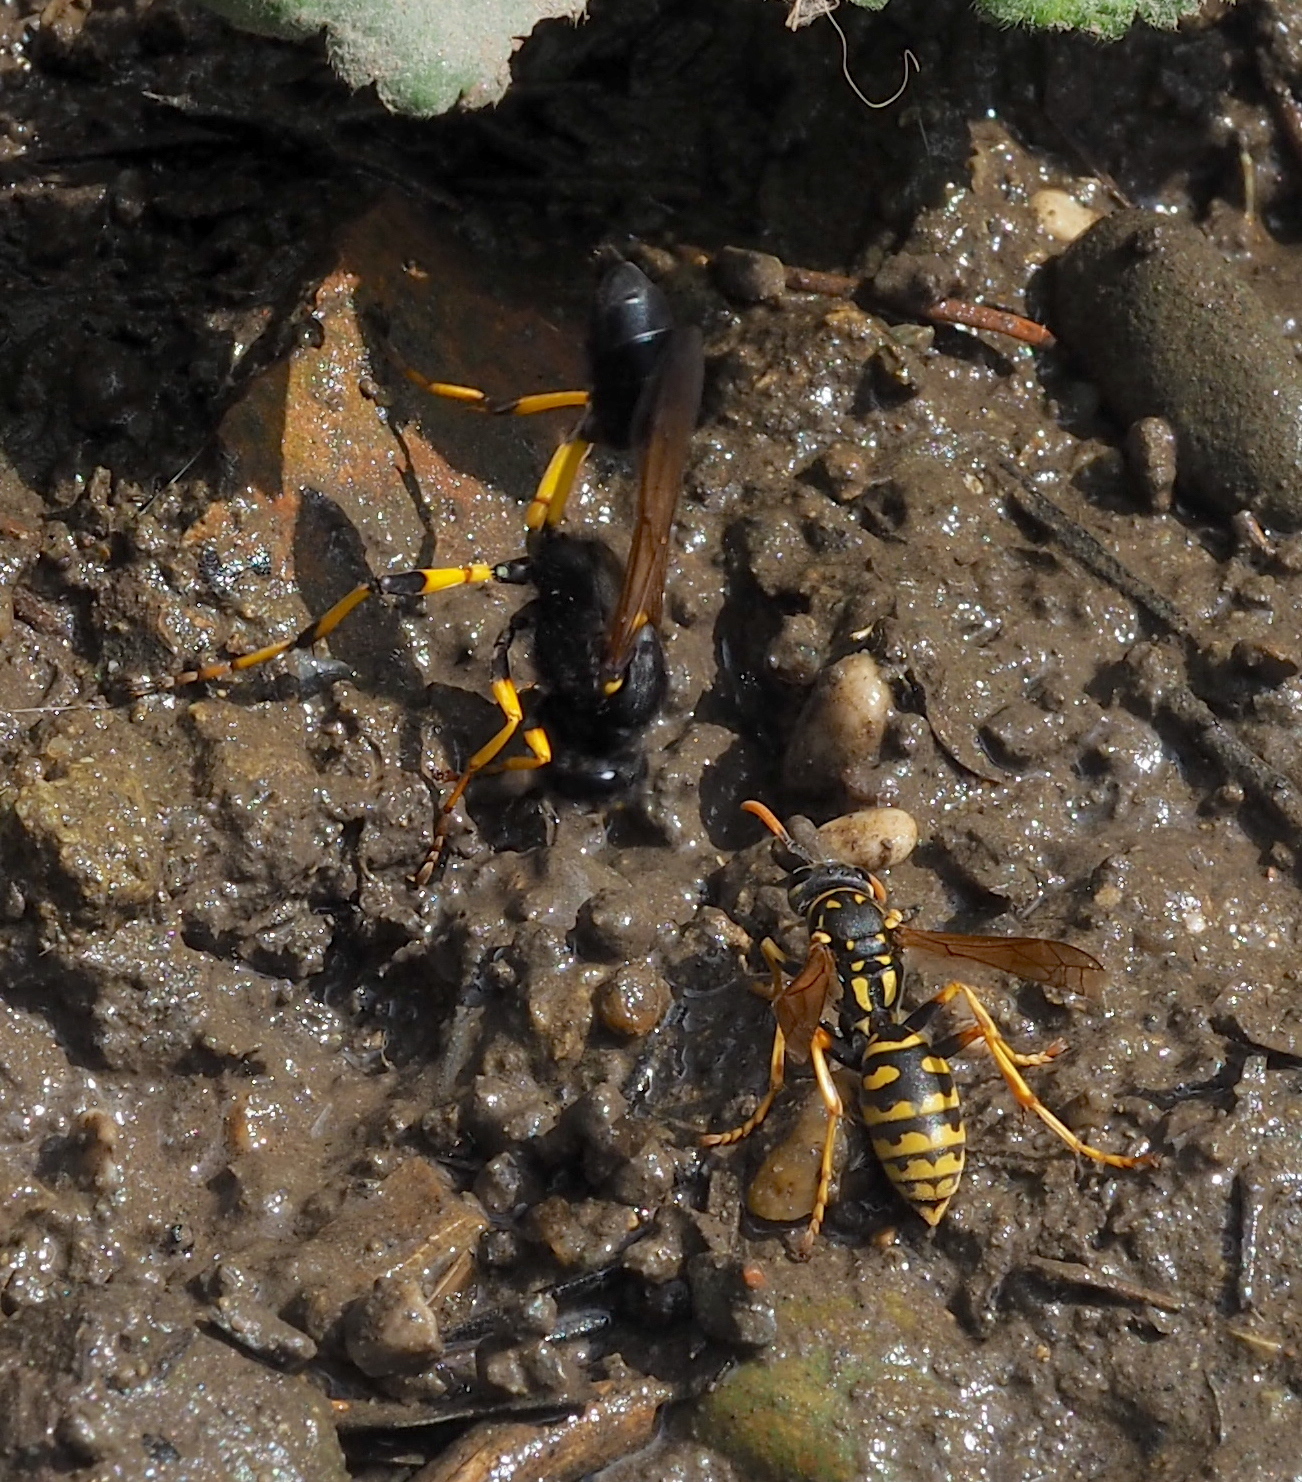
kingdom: Animalia
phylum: Arthropoda
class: Insecta
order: Hymenoptera
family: Eumenidae
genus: Polistes
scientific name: Polistes dominula
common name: Paper wasp
